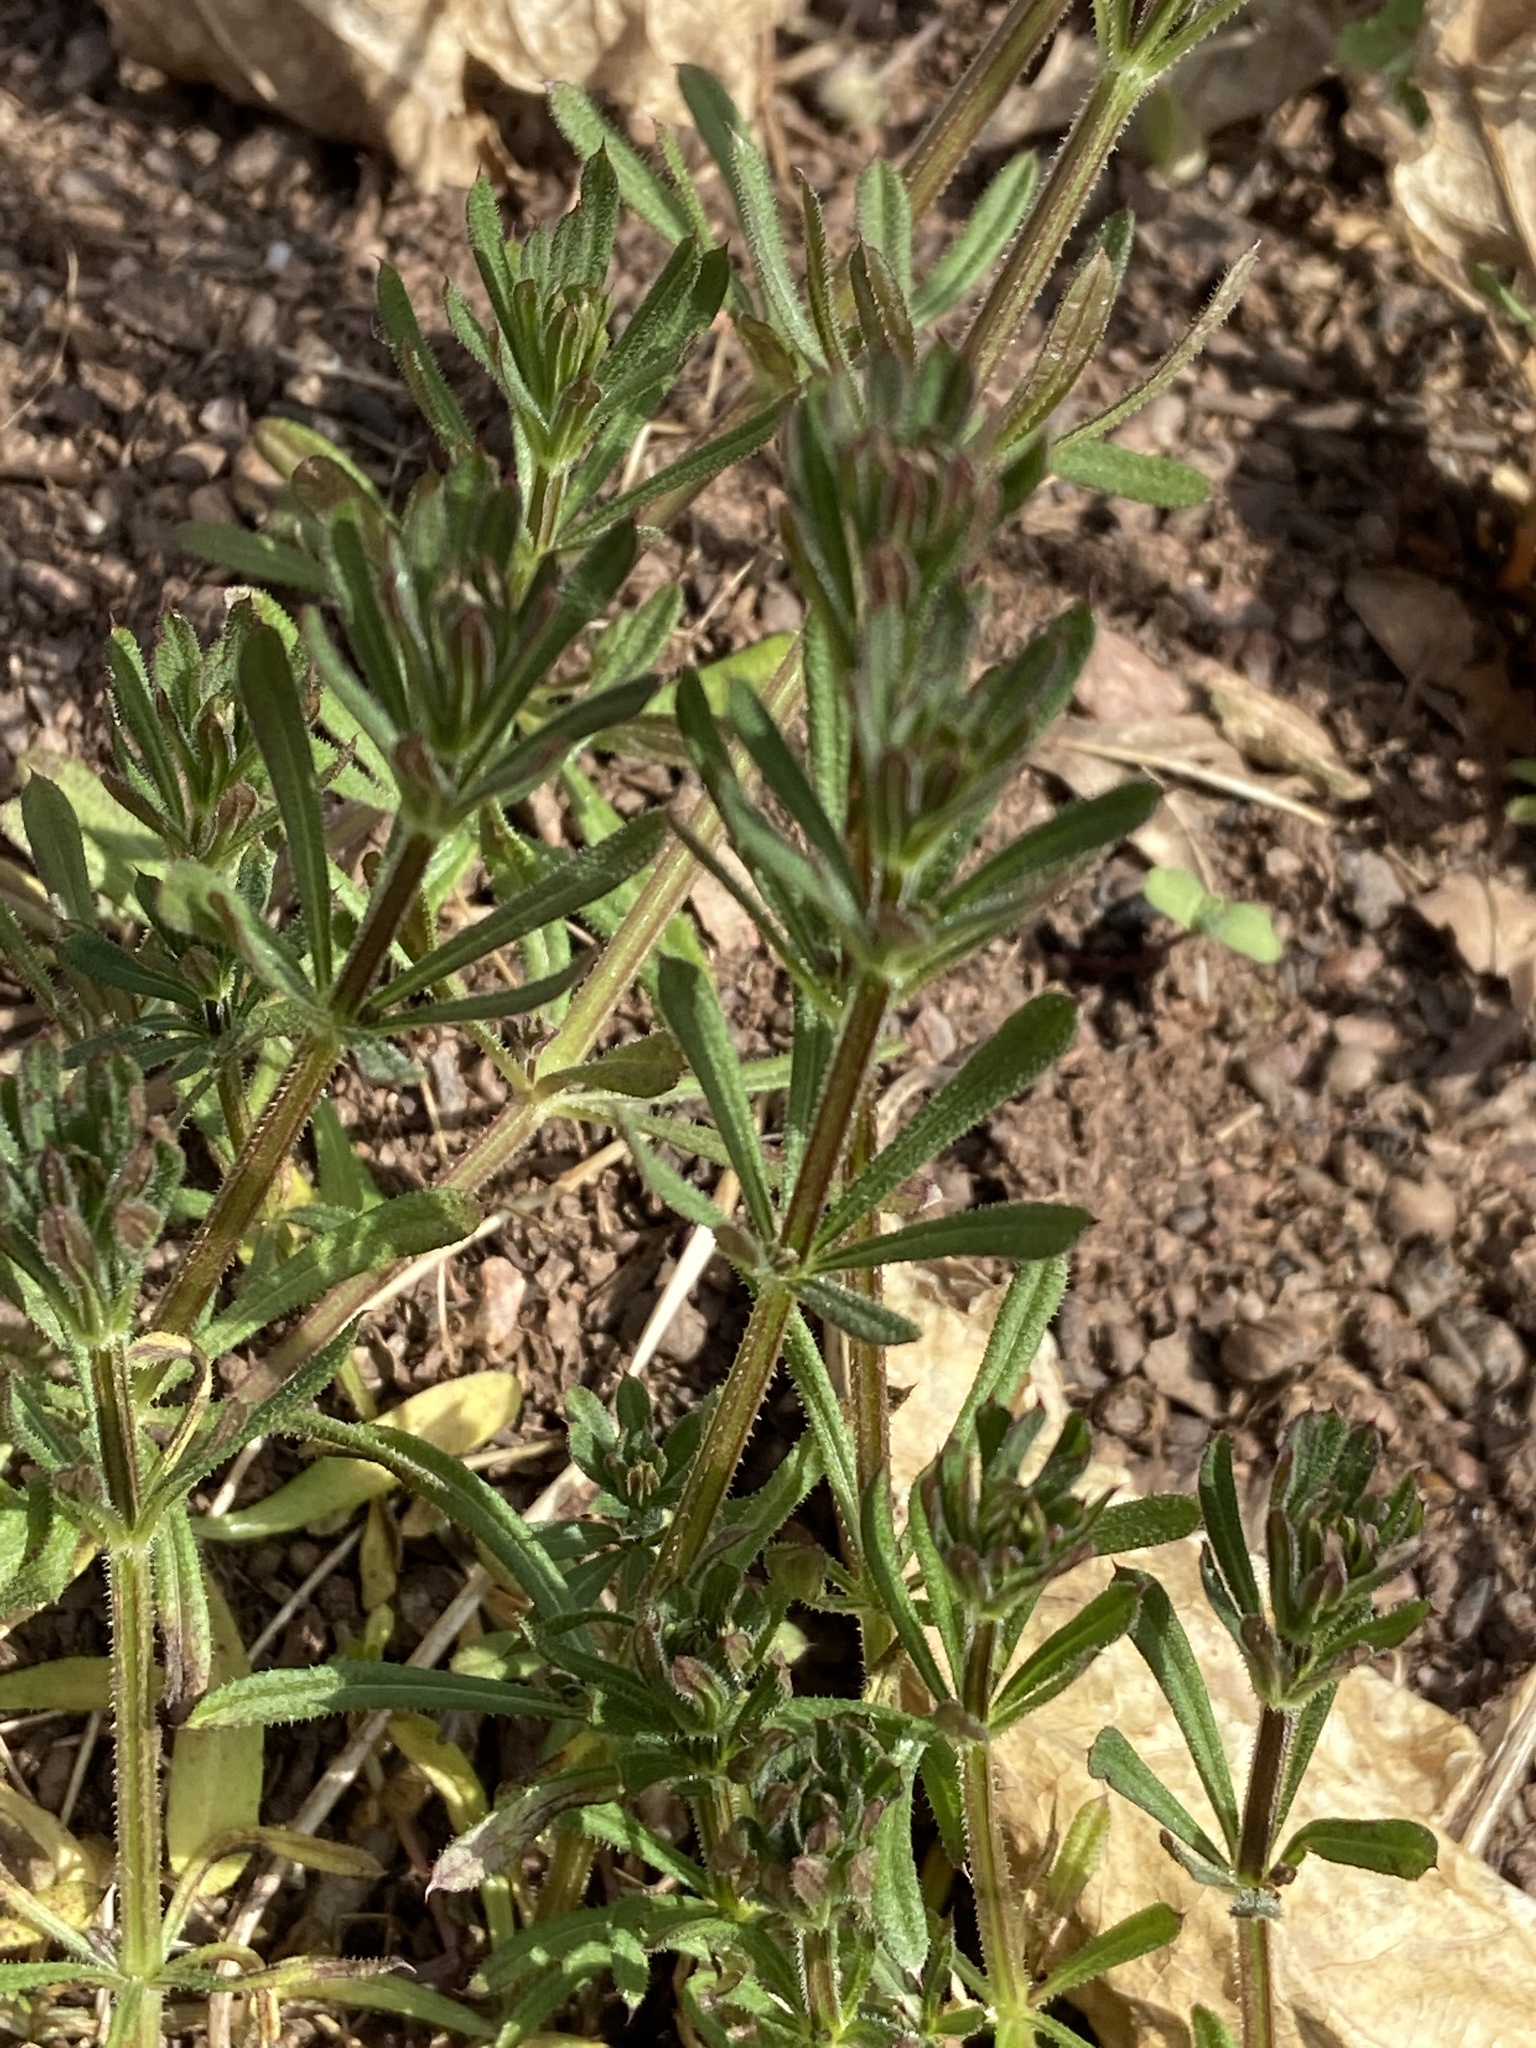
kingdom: Plantae
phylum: Tracheophyta
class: Magnoliopsida
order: Gentianales
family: Rubiaceae
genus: Galium
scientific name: Galium aparine
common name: Cleavers
